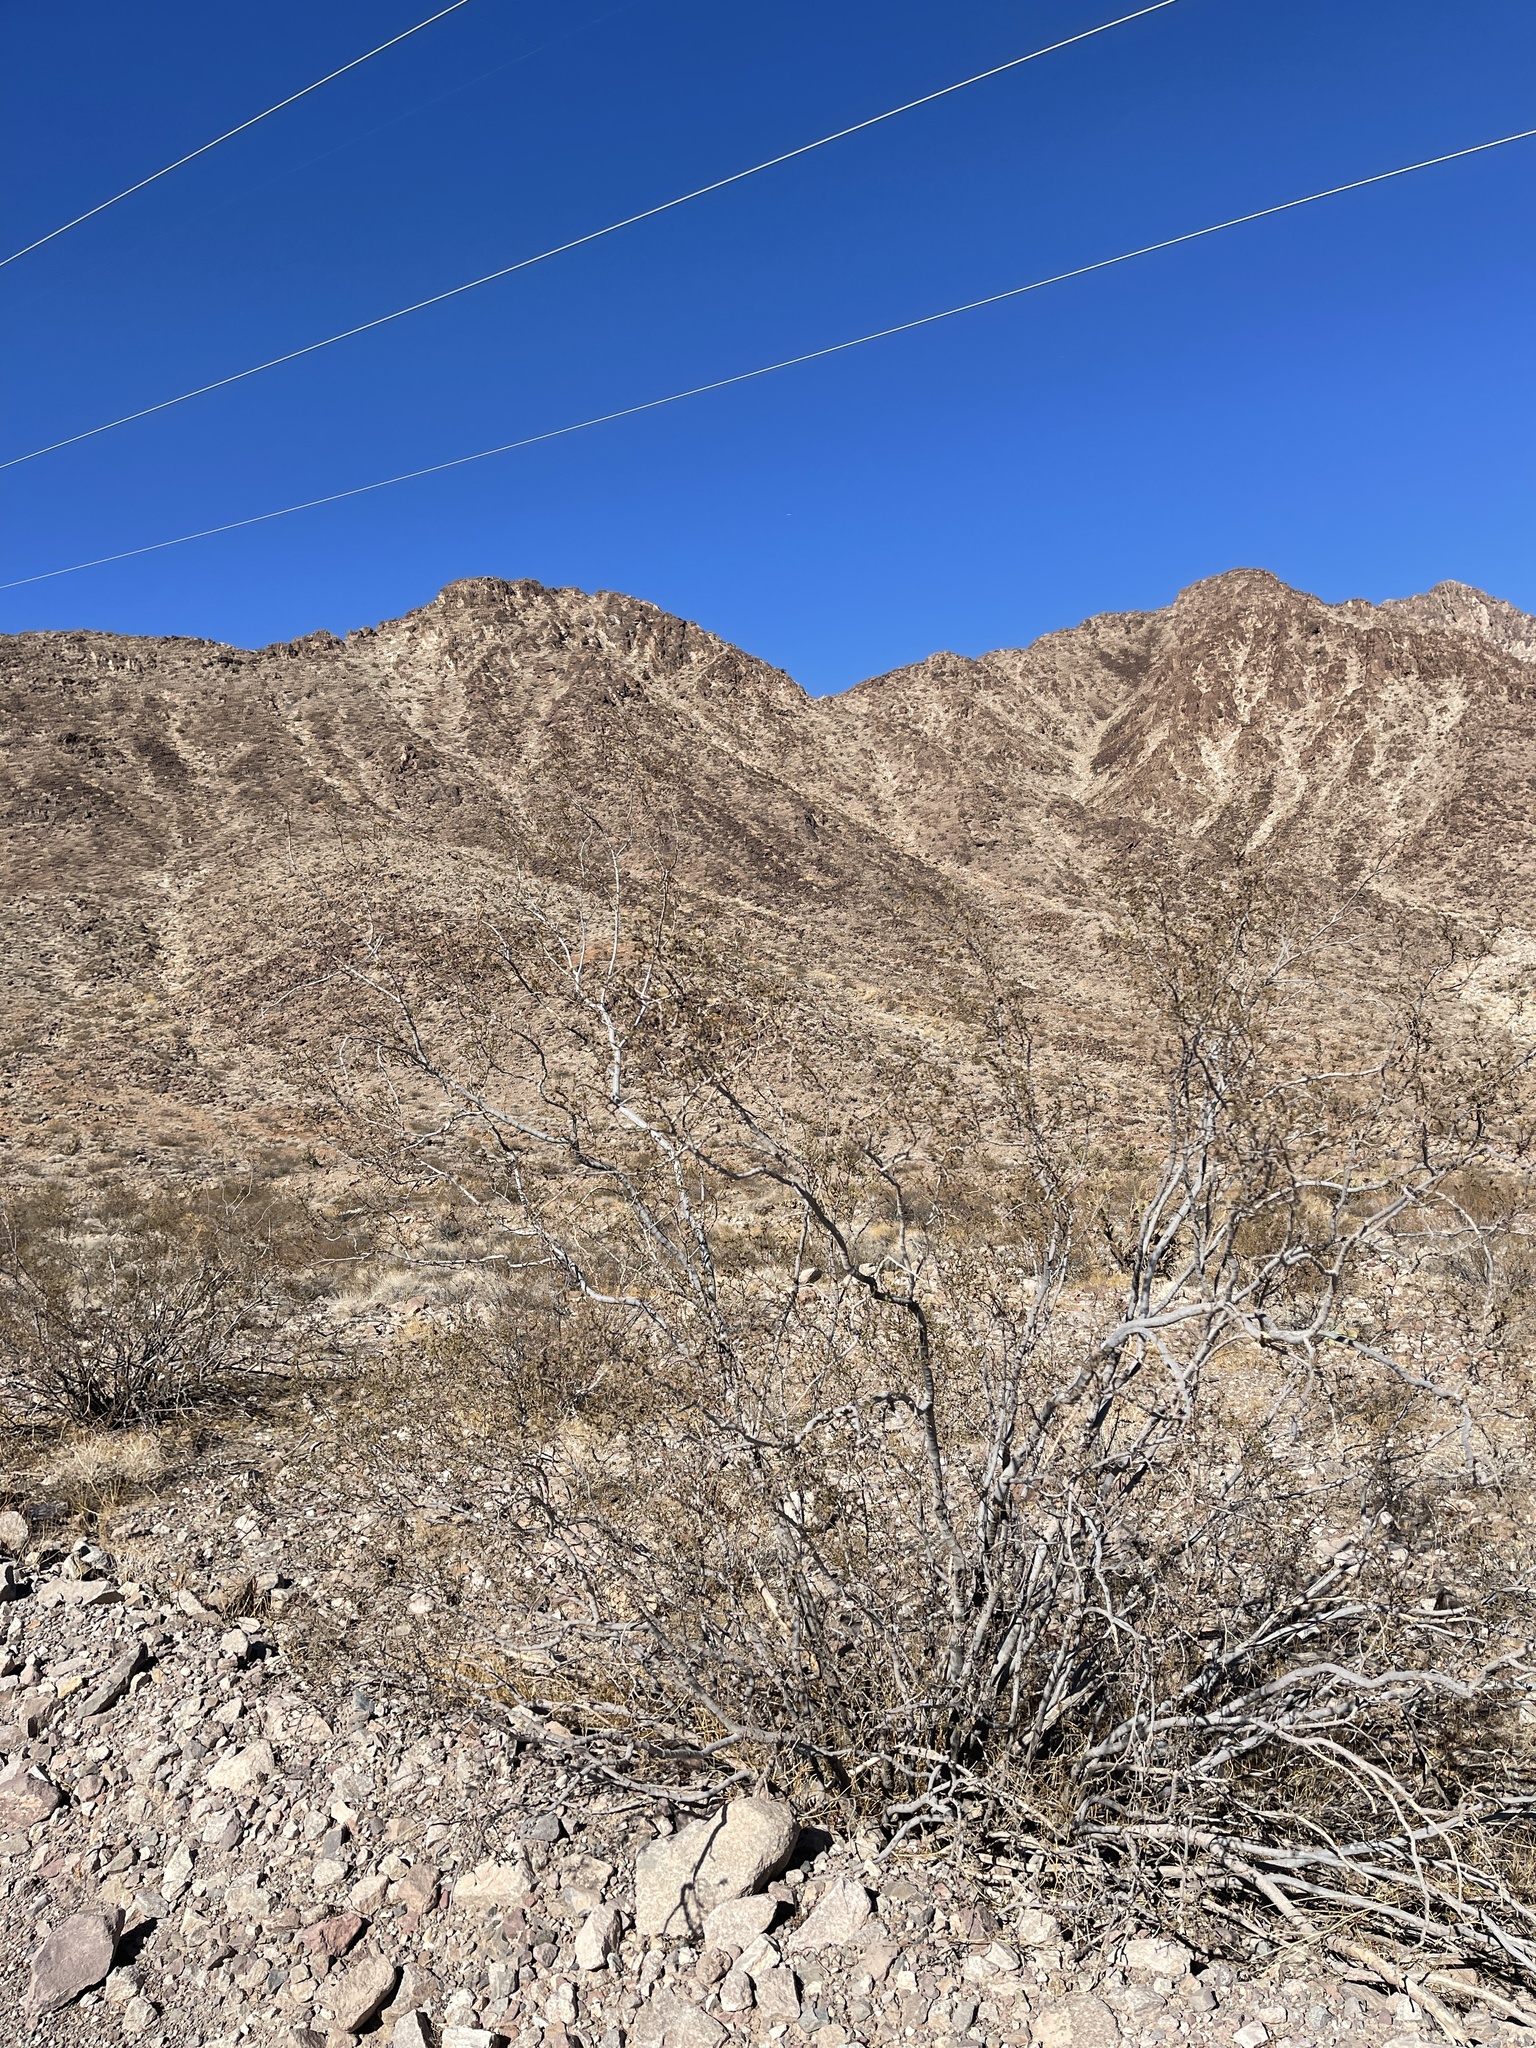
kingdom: Plantae
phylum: Tracheophyta
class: Magnoliopsida
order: Zygophyllales
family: Zygophyllaceae
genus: Larrea
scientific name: Larrea tridentata
